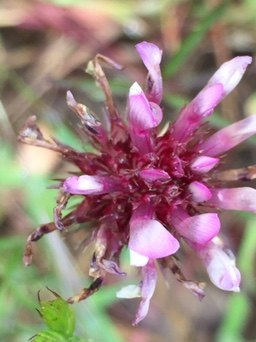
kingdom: Plantae
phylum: Tracheophyta
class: Magnoliopsida
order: Fabales
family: Fabaceae
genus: Trifolium
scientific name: Trifolium willdenovii
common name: Tomcat clover
